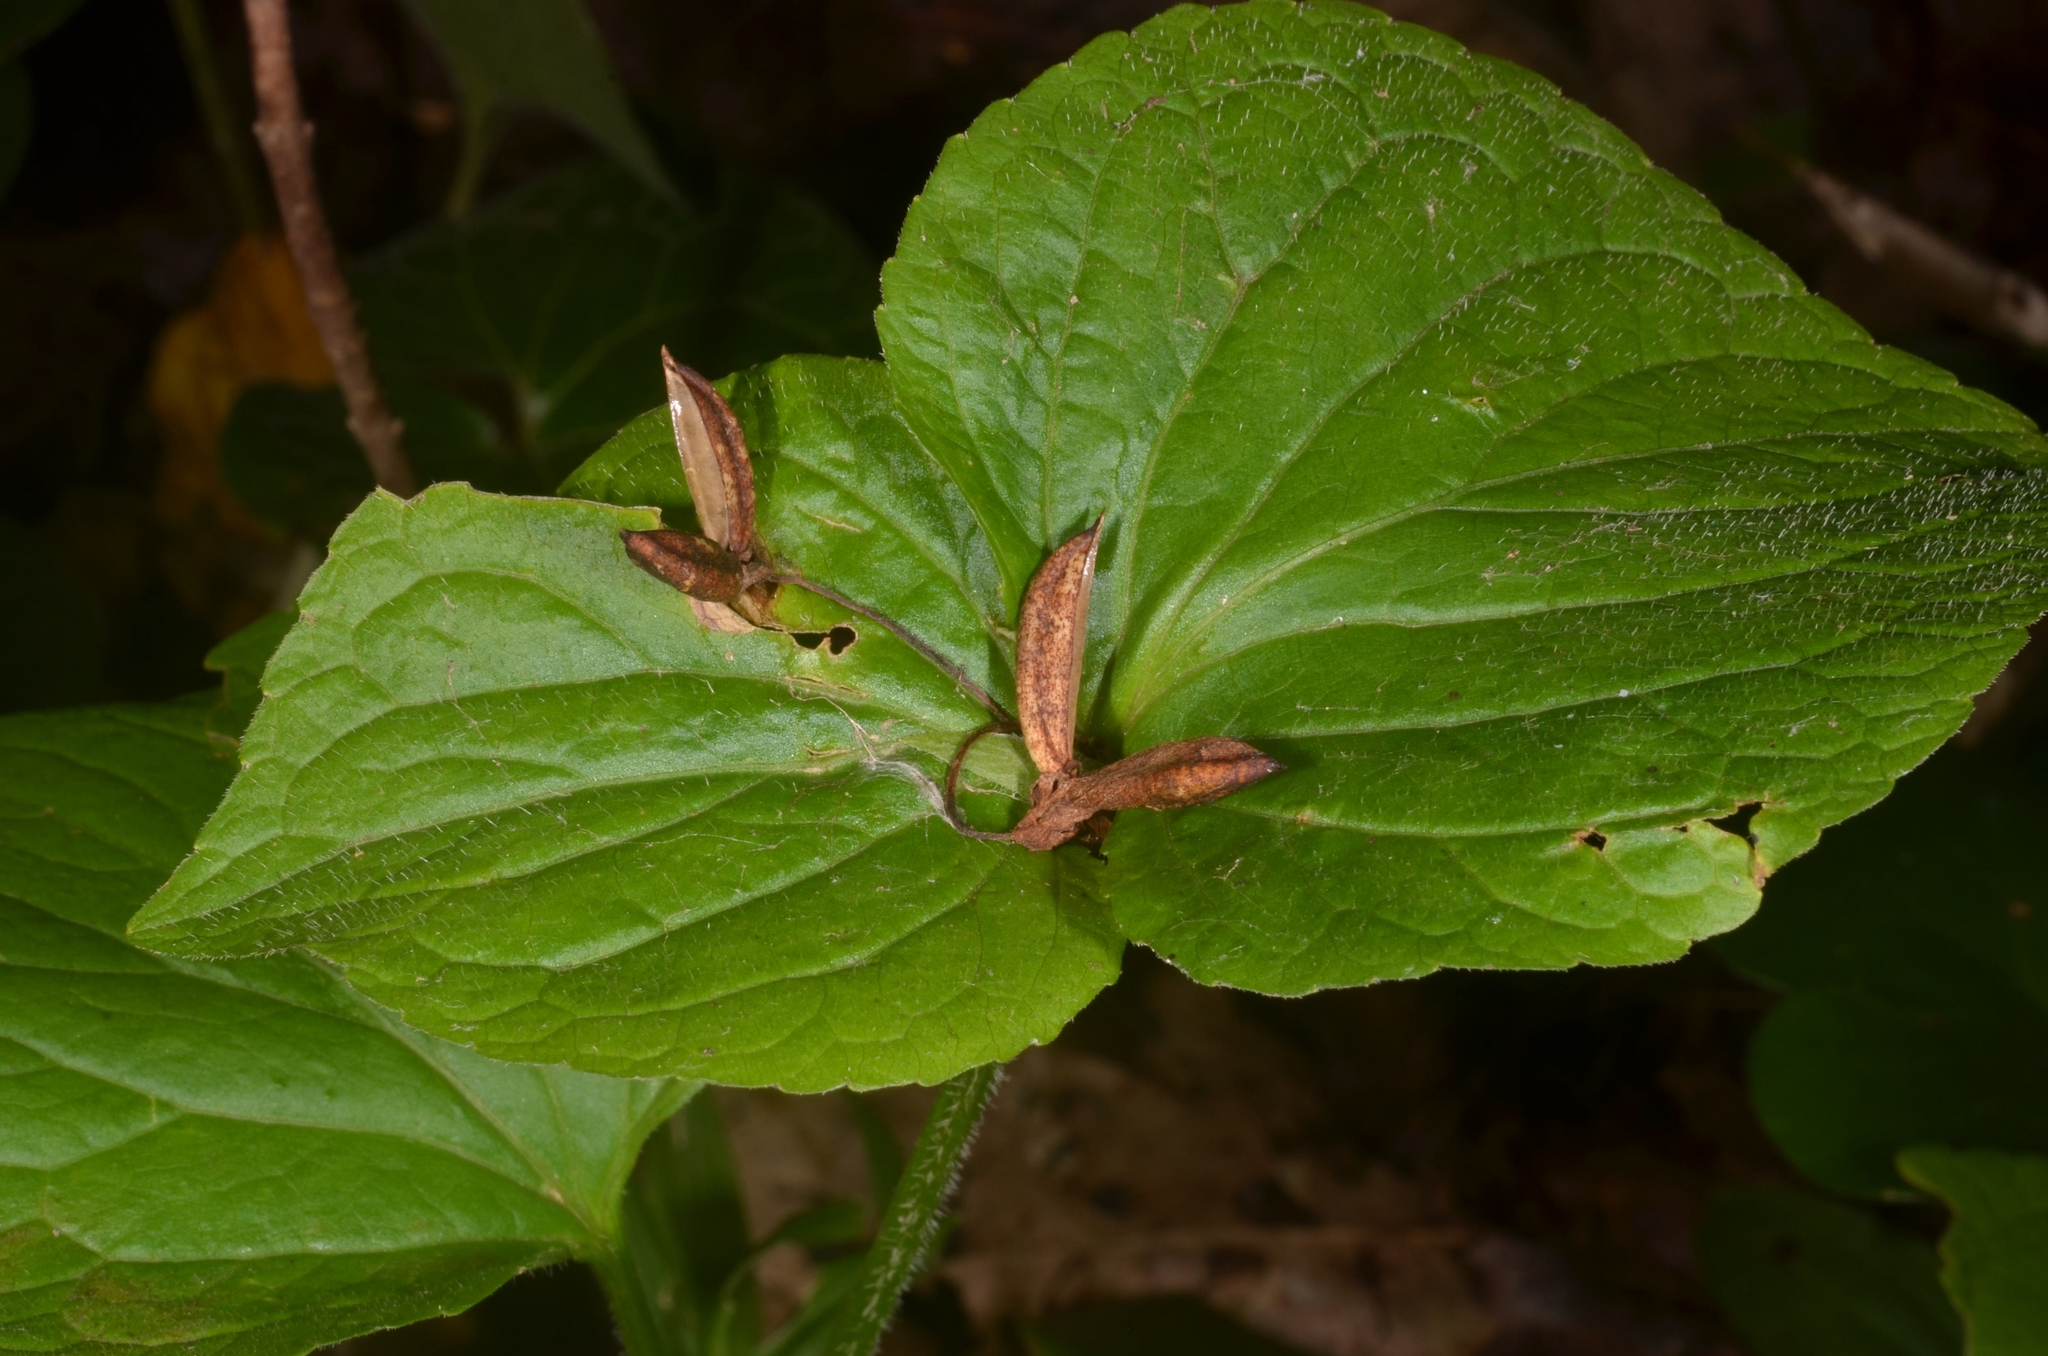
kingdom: Plantae
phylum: Tracheophyta
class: Magnoliopsida
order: Malpighiales
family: Violaceae
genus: Viola
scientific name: Viola mirabilis
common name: Wonder violet
